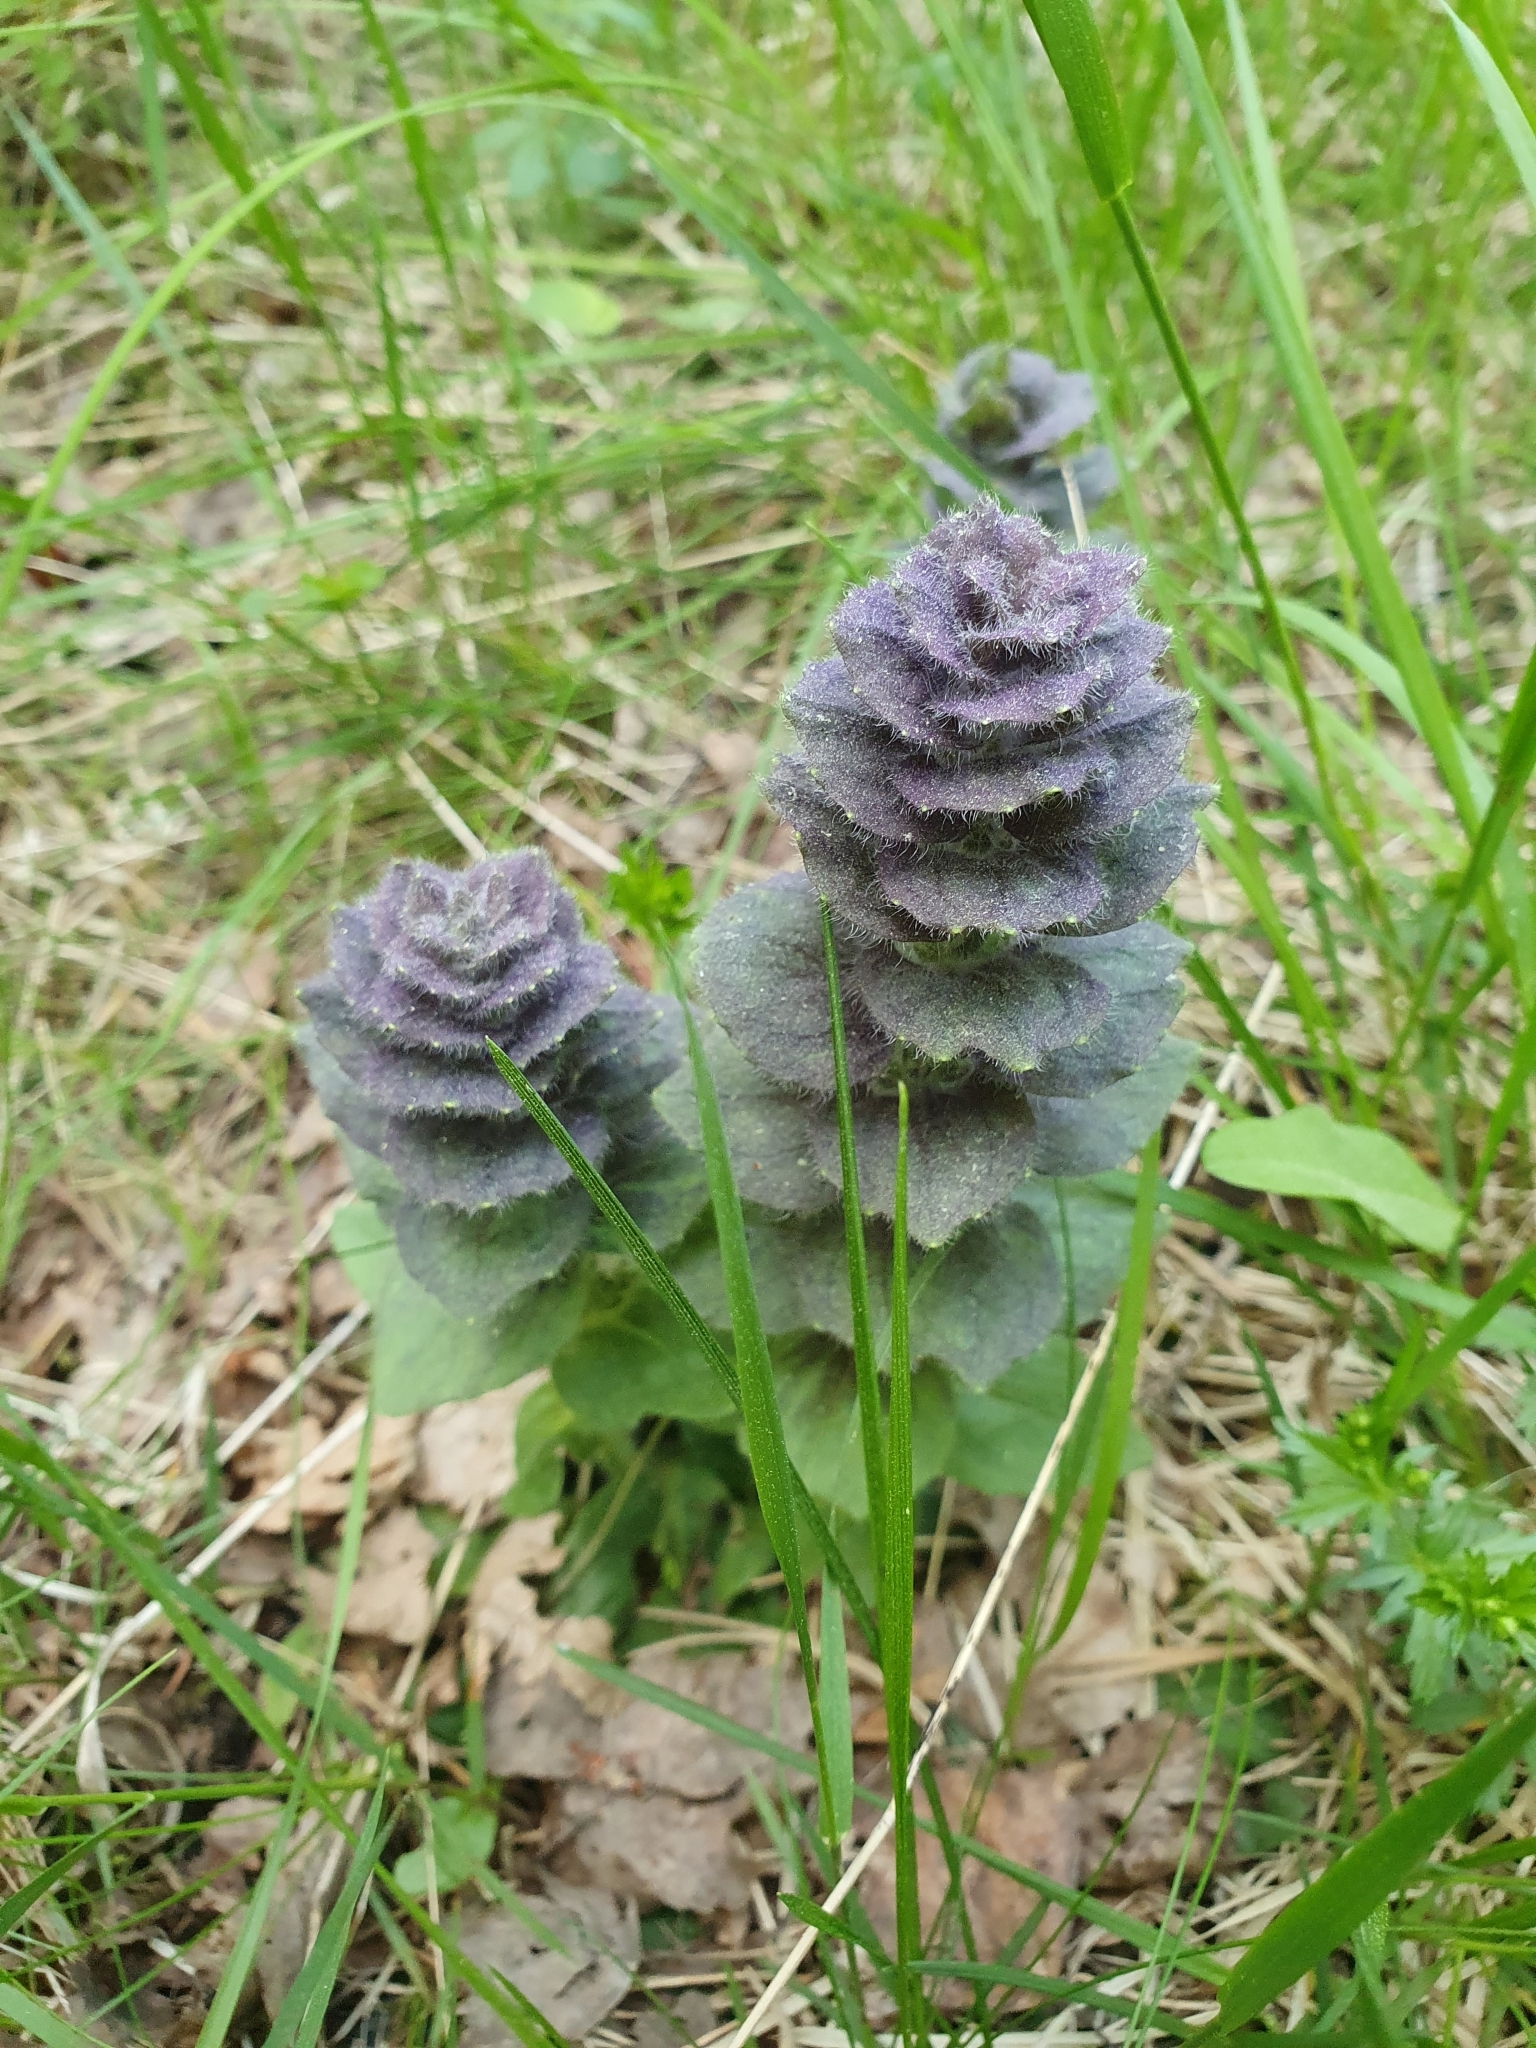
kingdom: Plantae
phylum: Tracheophyta
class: Magnoliopsida
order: Lamiales
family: Lamiaceae
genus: Ajuga
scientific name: Ajuga pyramidalis
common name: Pyramid bugle
